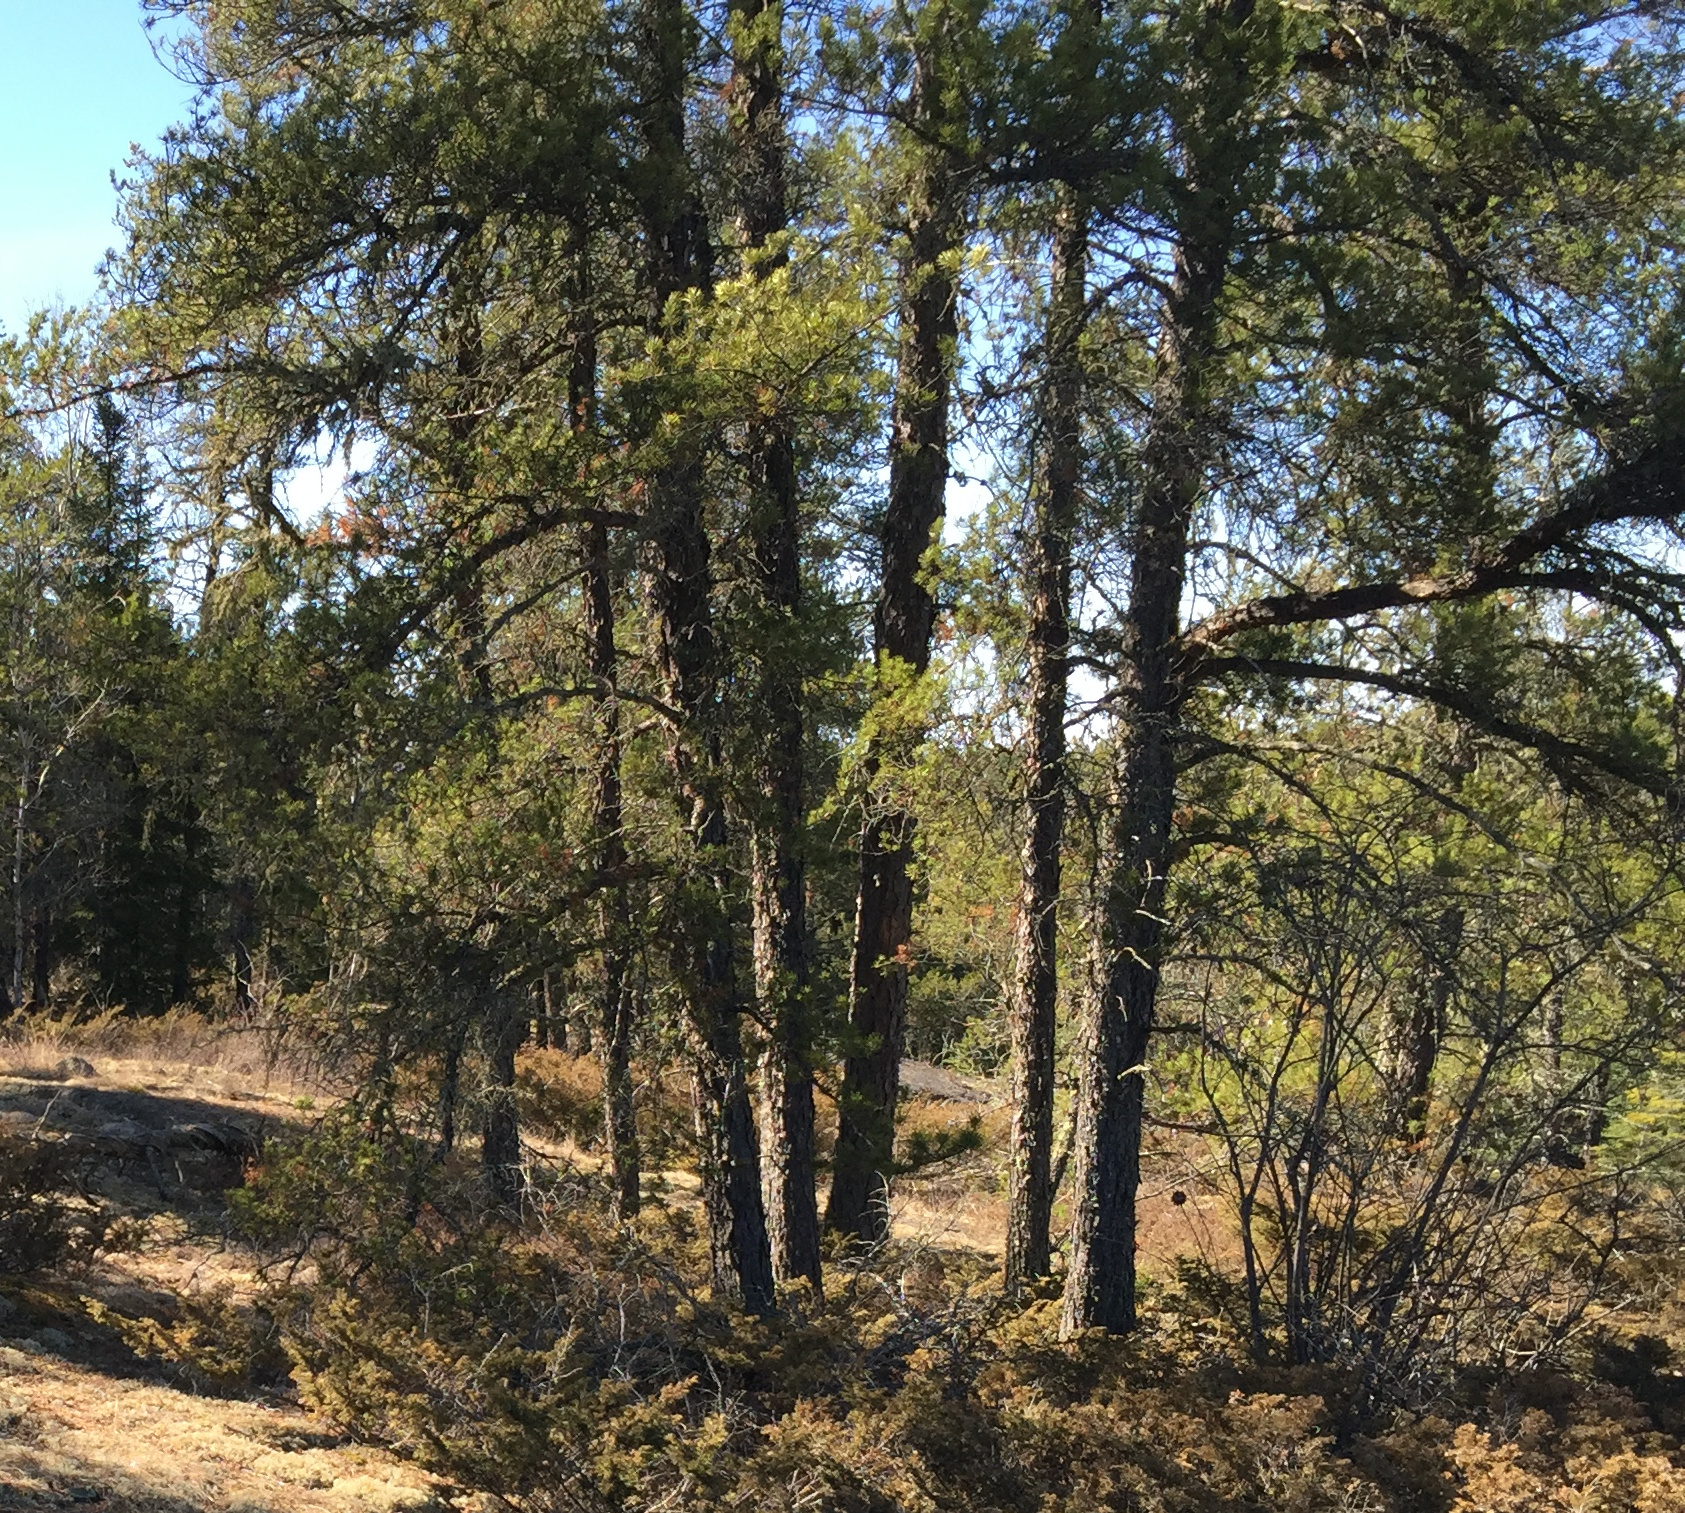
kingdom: Plantae
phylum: Tracheophyta
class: Pinopsida
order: Pinales
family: Pinaceae
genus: Pinus
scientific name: Pinus banksiana
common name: Jack pine
